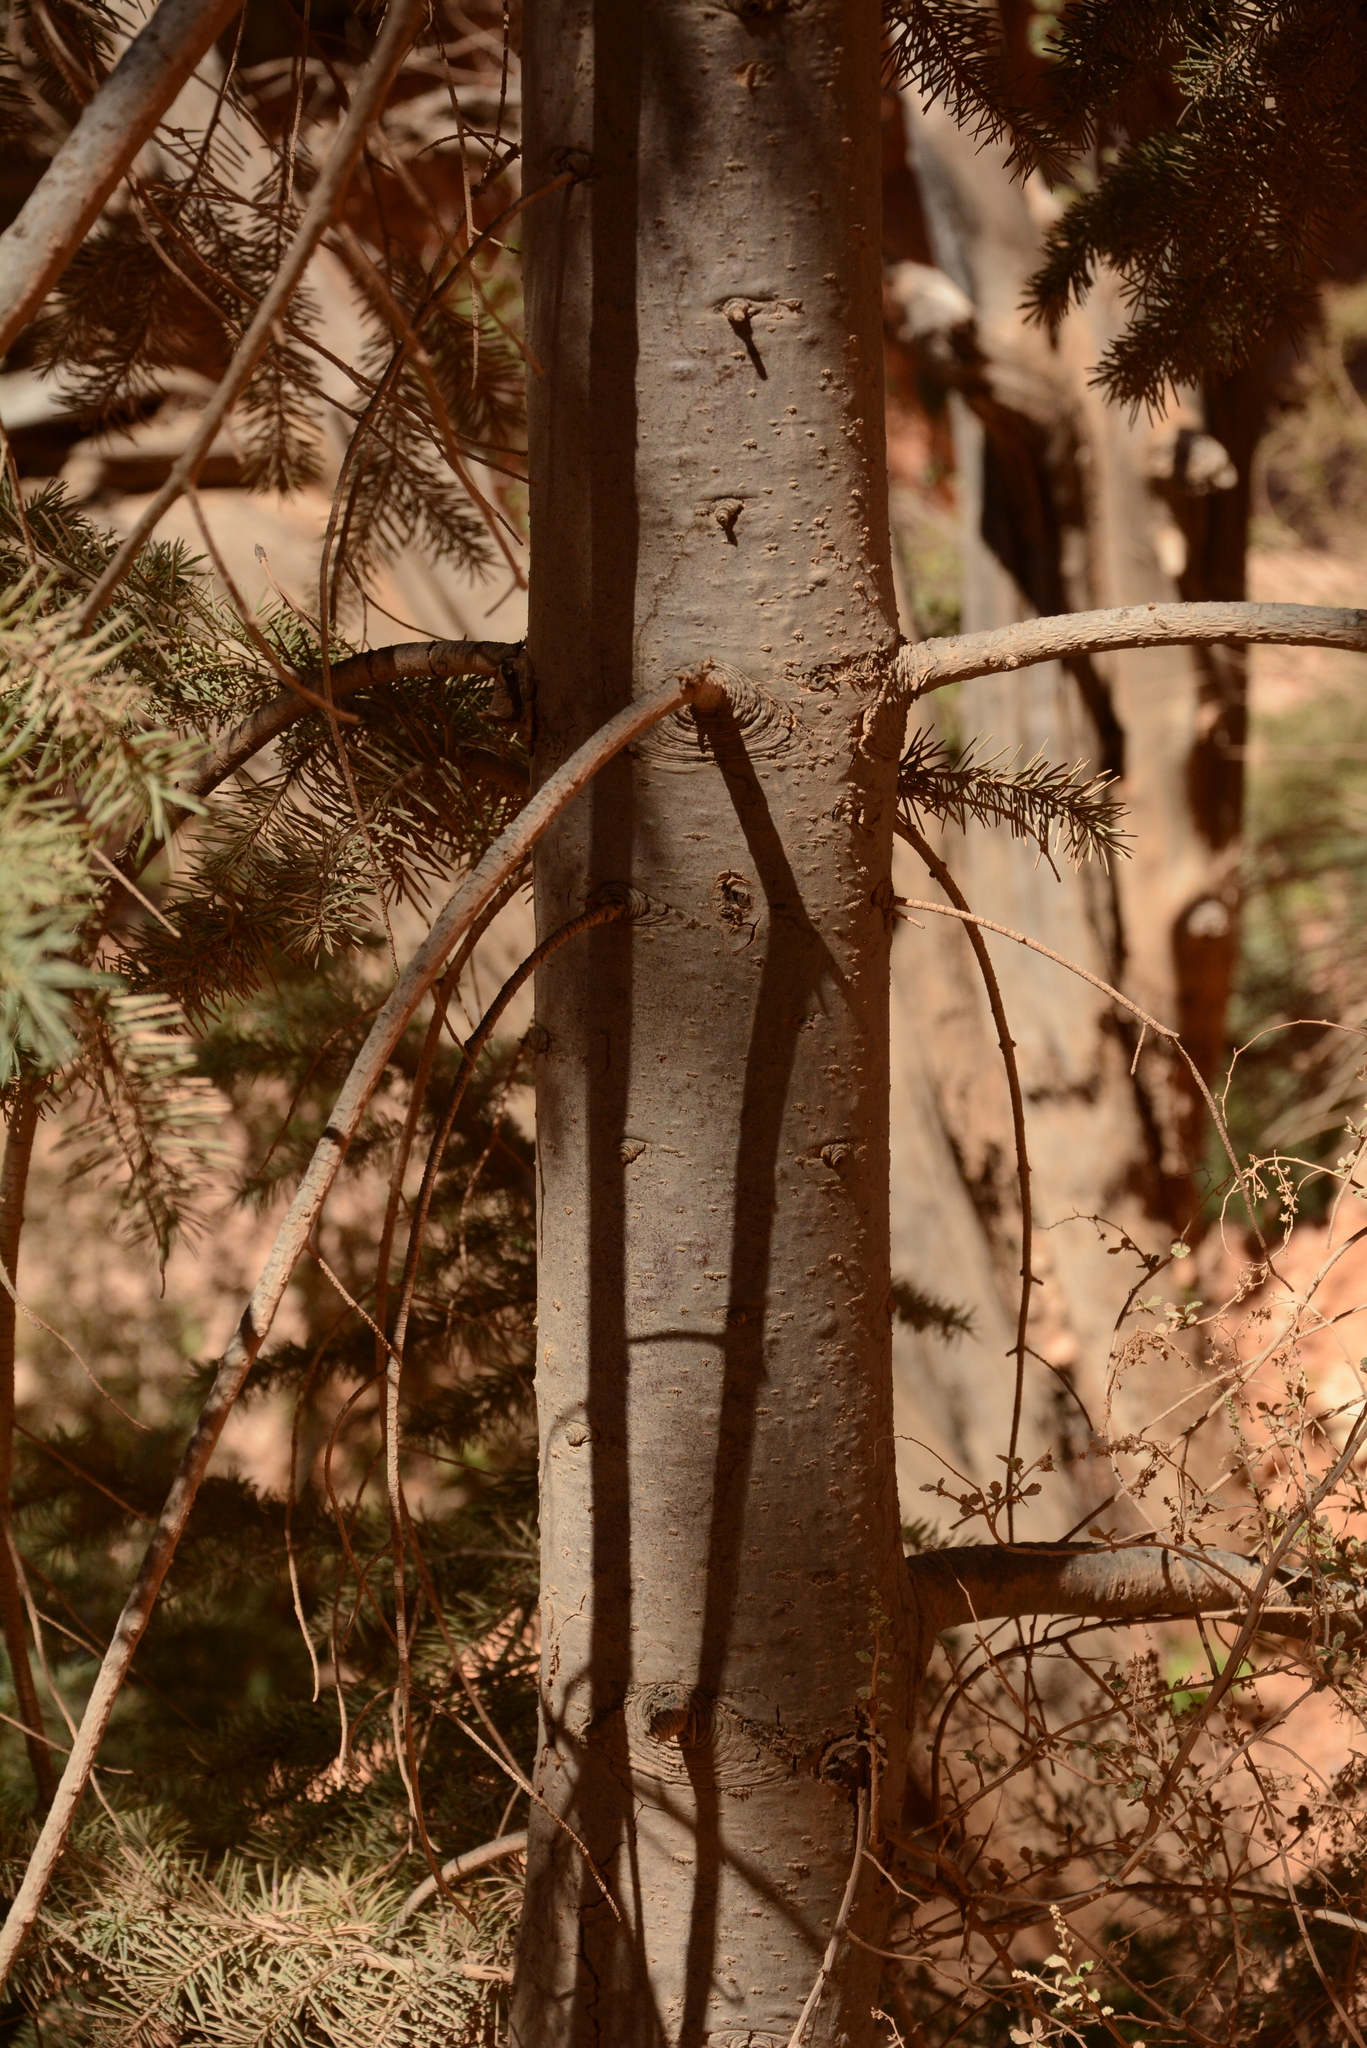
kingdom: Plantae
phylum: Tracheophyta
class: Pinopsida
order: Pinales
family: Pinaceae
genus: Pseudotsuga
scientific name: Pseudotsuga menziesii
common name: Douglas fir
